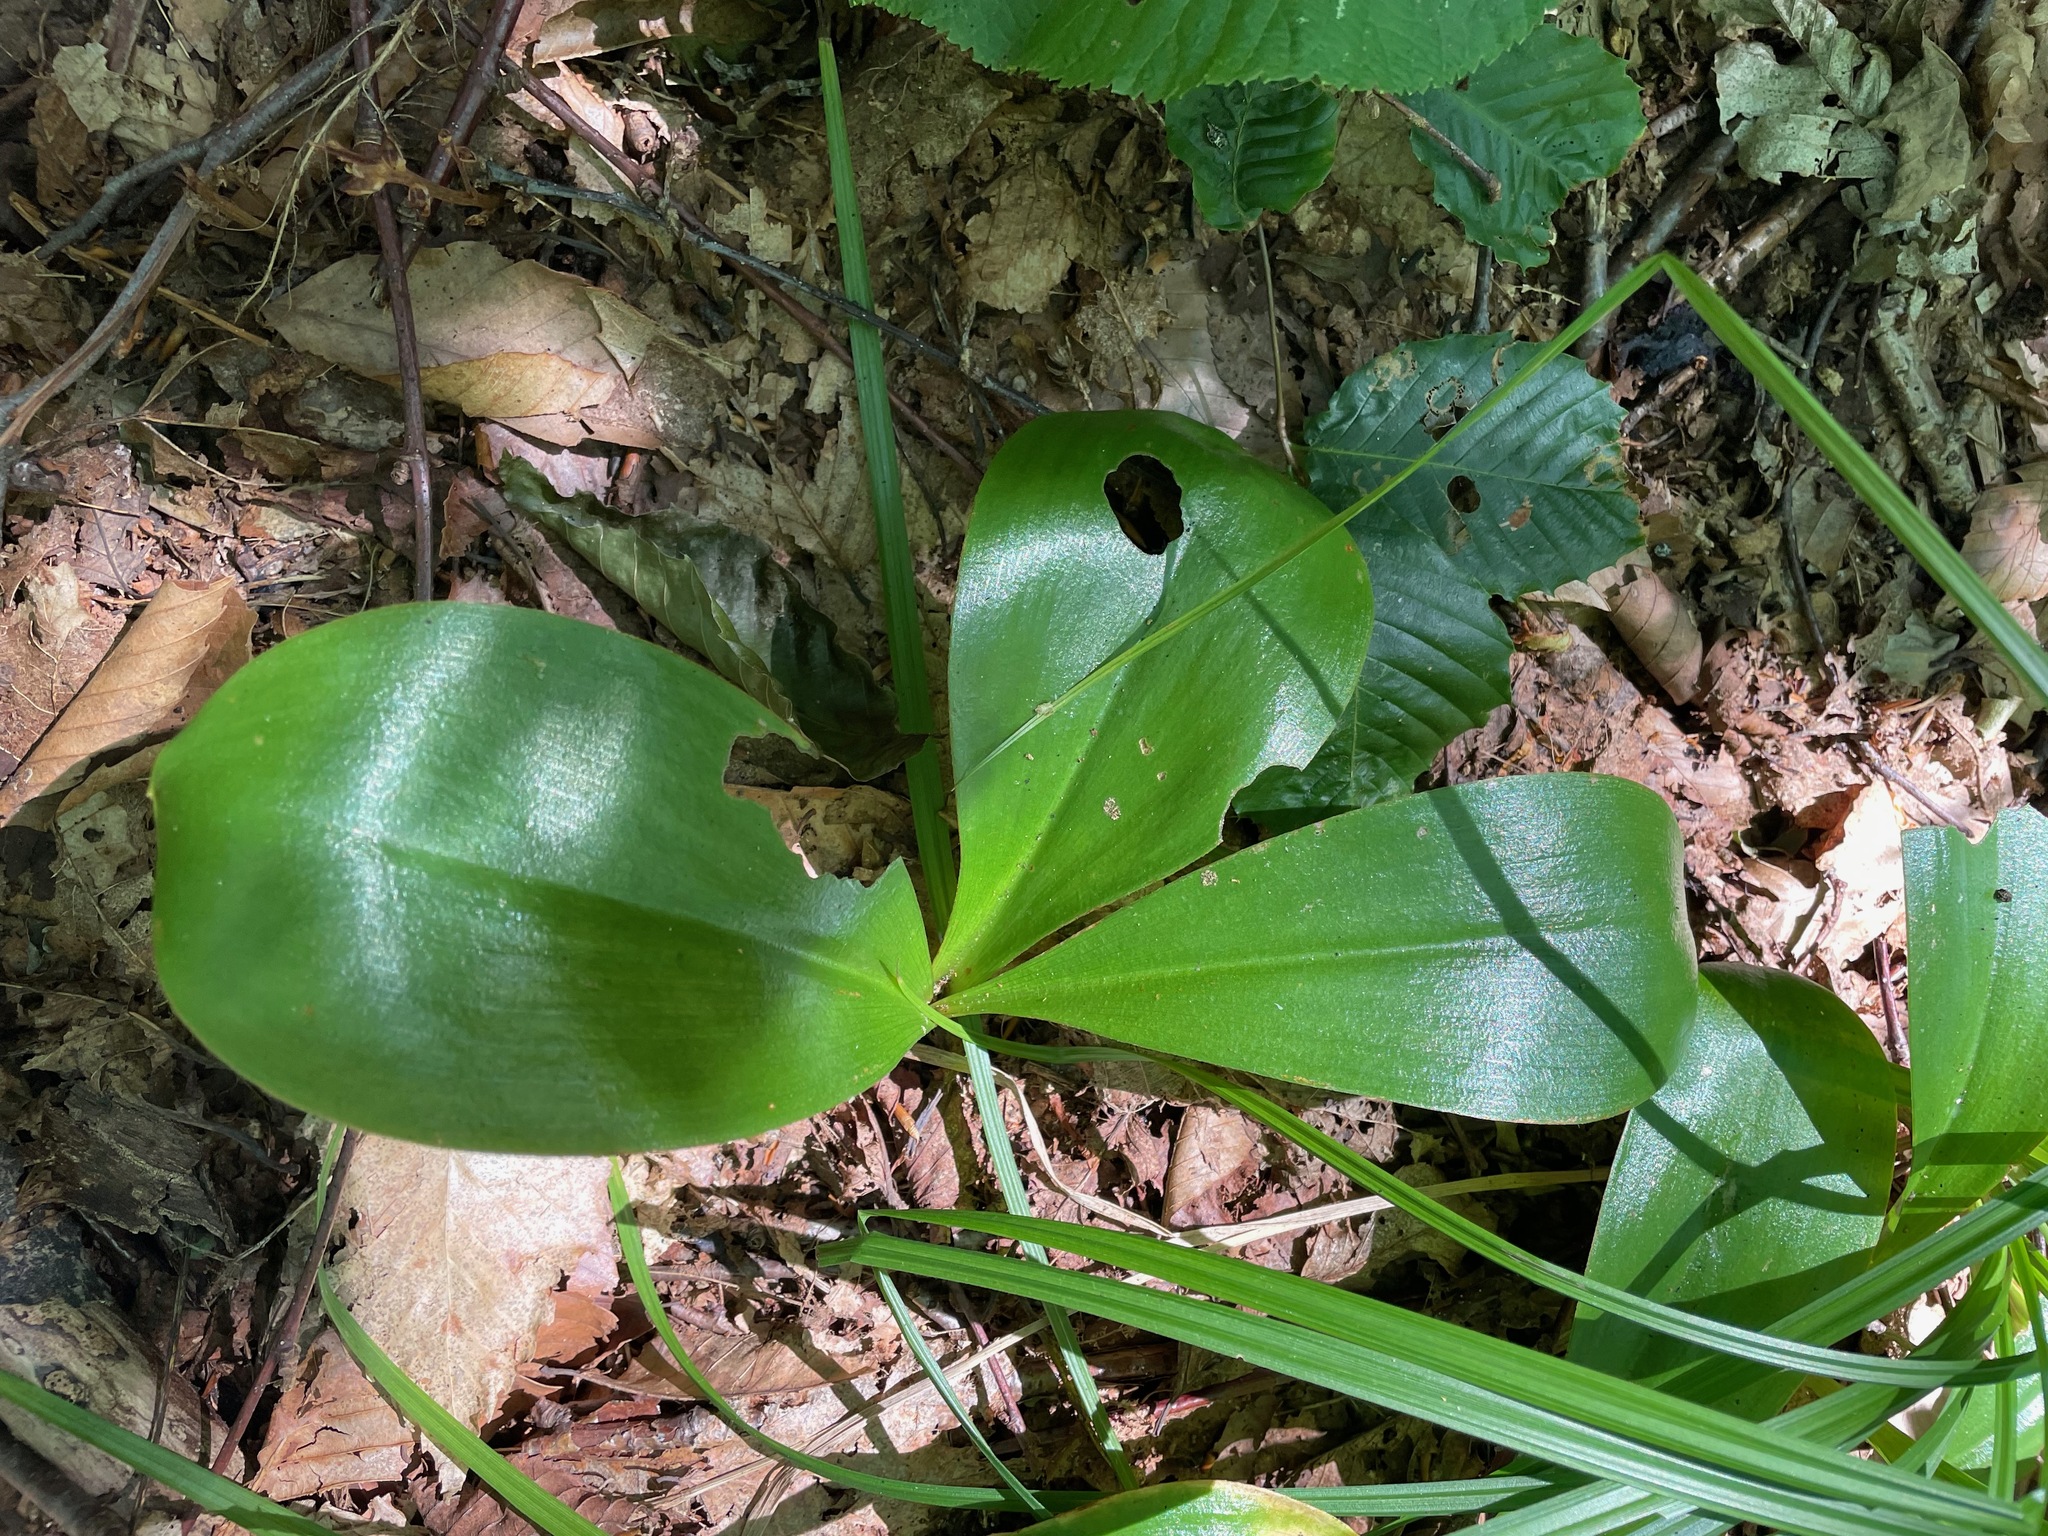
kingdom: Plantae
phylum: Tracheophyta
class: Liliopsida
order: Liliales
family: Liliaceae
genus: Clintonia
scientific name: Clintonia borealis
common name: Yellow clintonia
